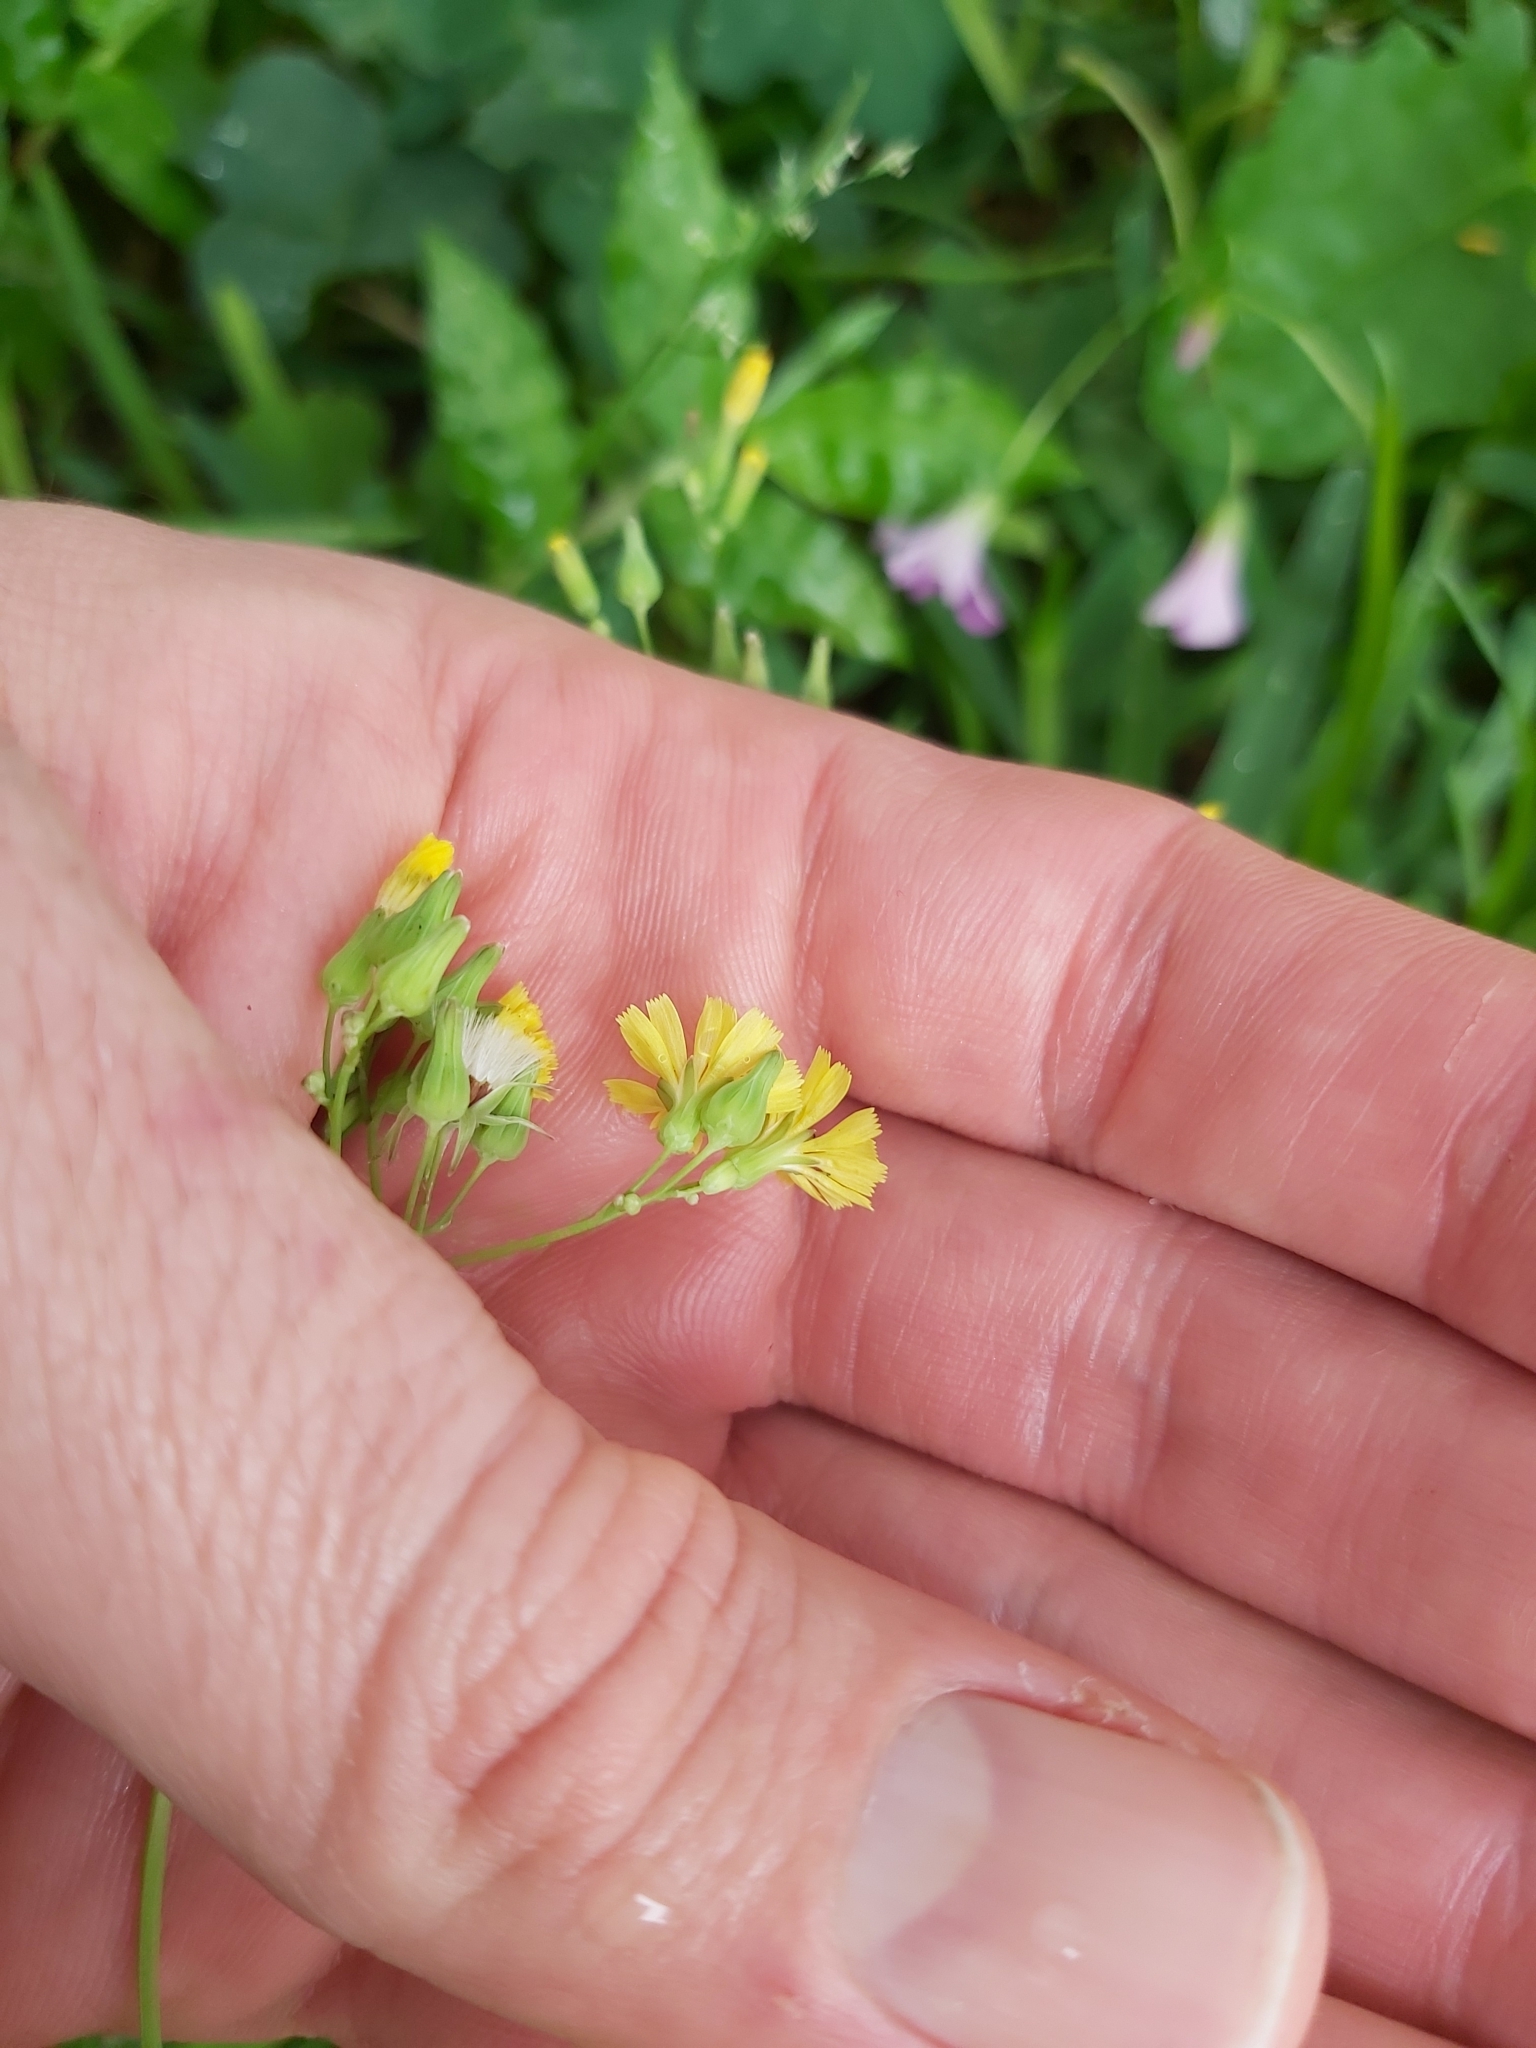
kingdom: Plantae
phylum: Tracheophyta
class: Magnoliopsida
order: Asterales
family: Asteraceae
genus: Youngia
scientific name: Youngia japonica
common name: Oriental false hawksbeard
